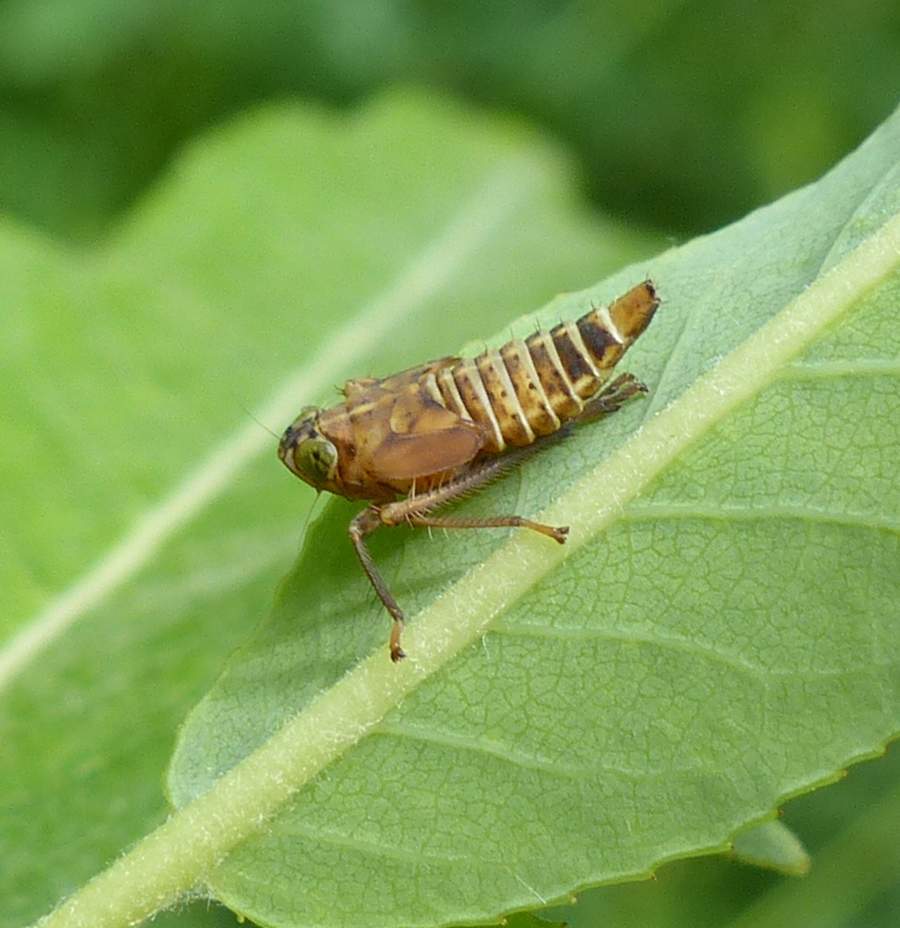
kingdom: Animalia
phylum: Arthropoda
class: Insecta
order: Hemiptera
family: Cicadellidae
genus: Jikradia
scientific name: Jikradia olitoria
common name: Coppery leafhopper
